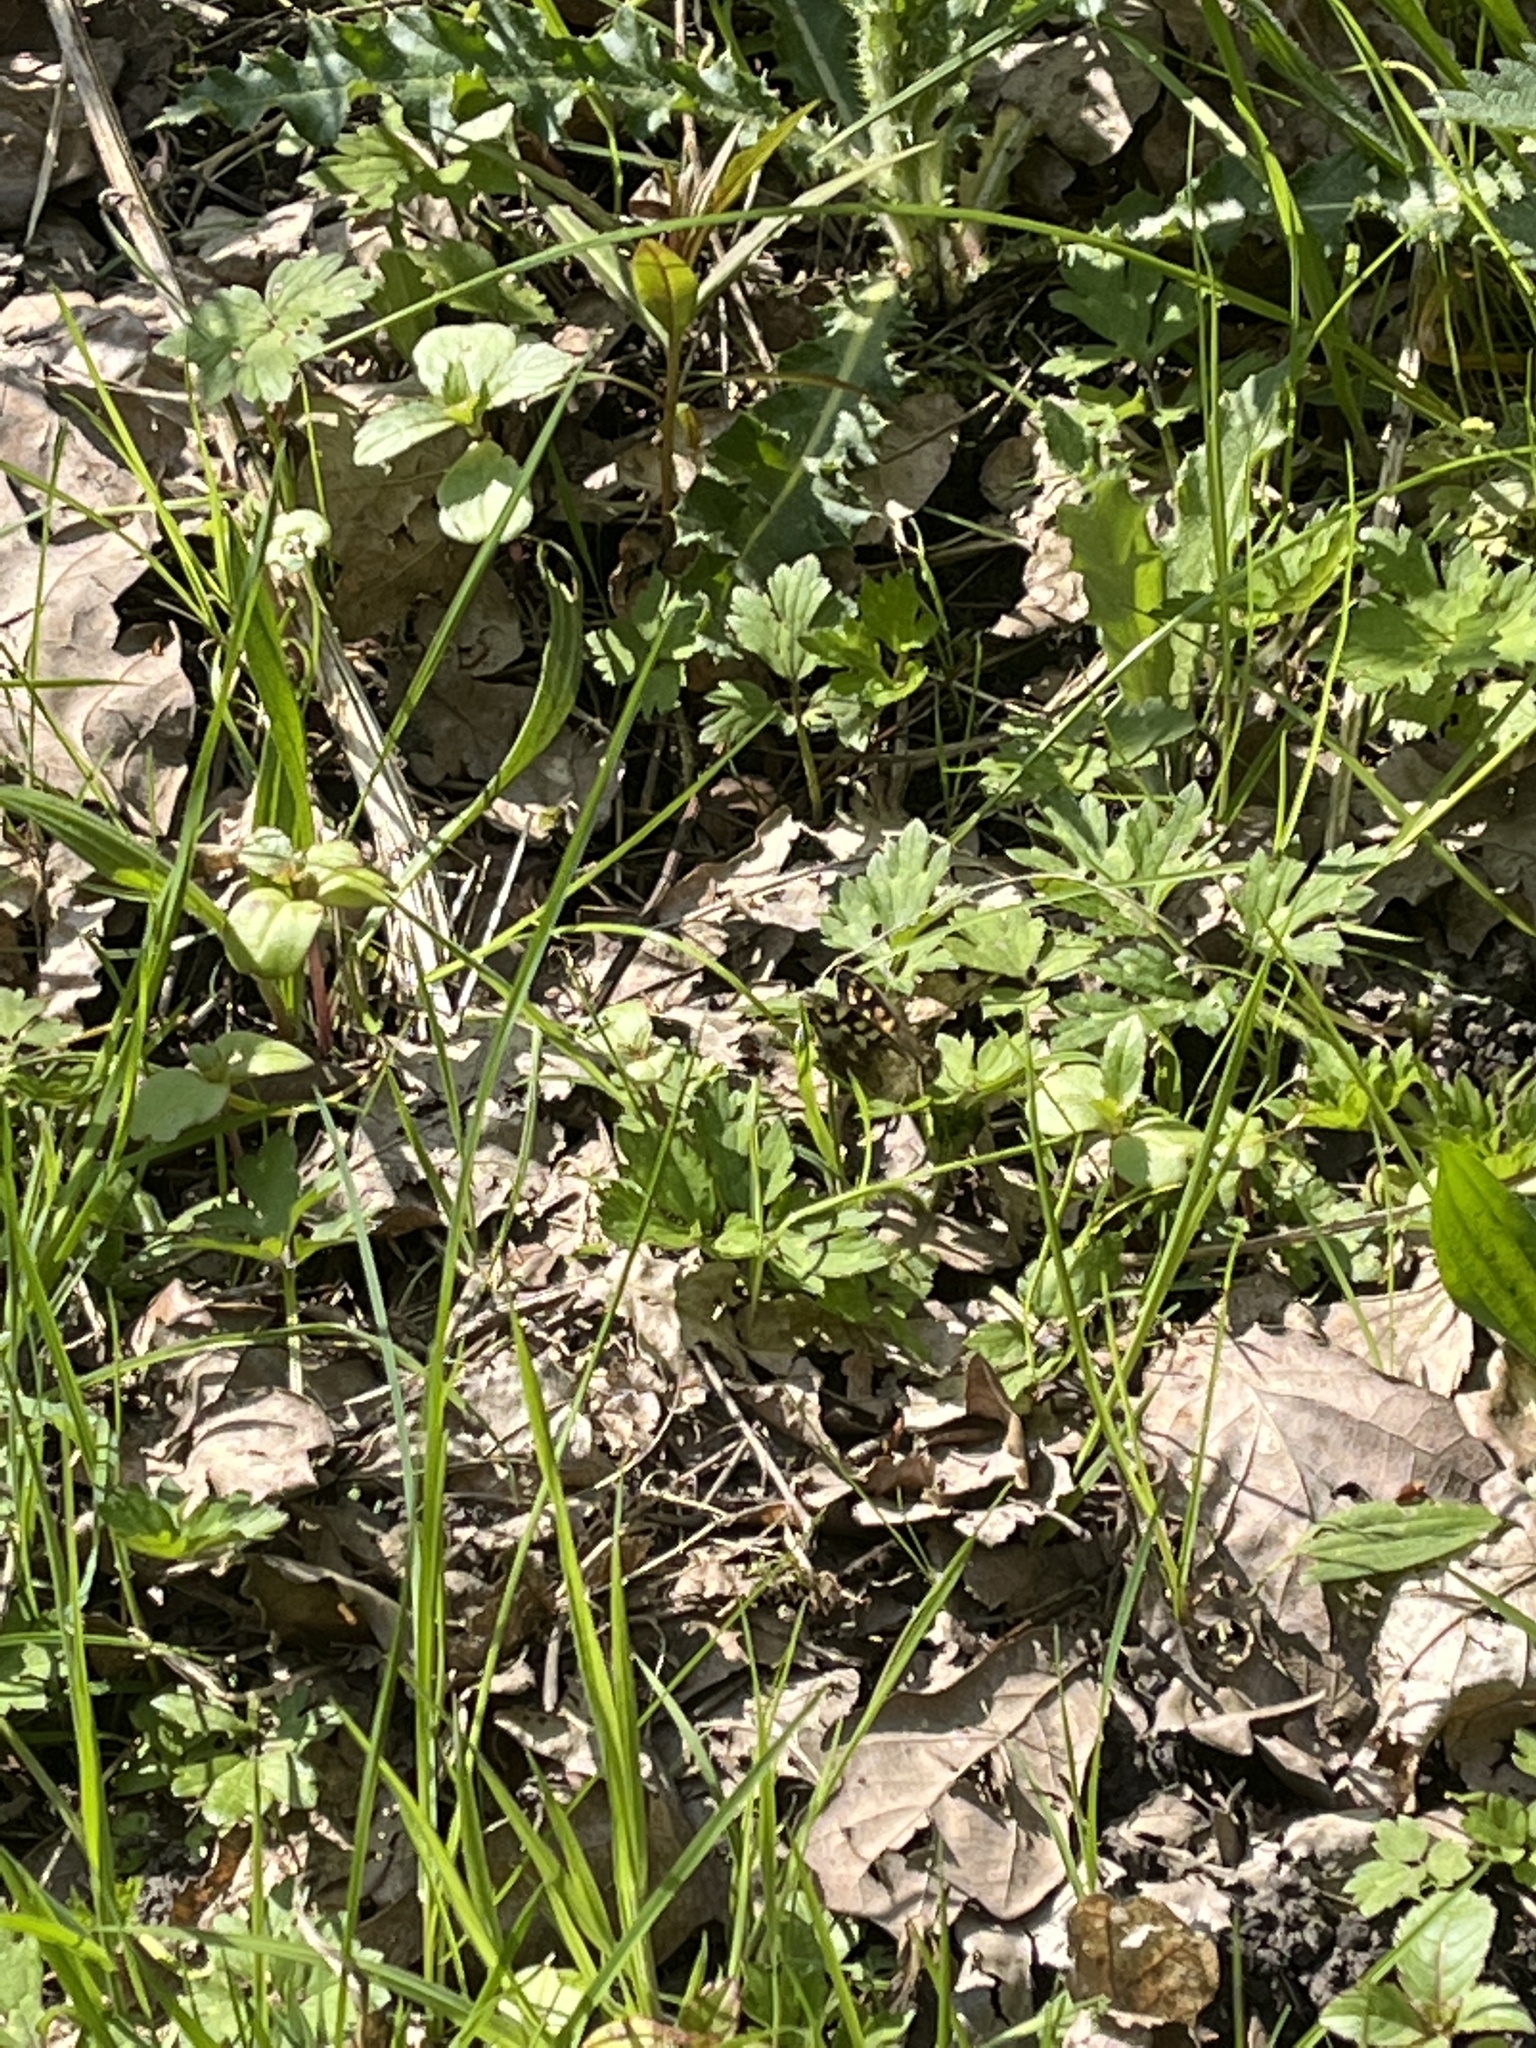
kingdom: Animalia
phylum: Arthropoda
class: Insecta
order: Lepidoptera
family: Nymphalidae
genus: Pararge
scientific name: Pararge aegeria
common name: Speckled wood
